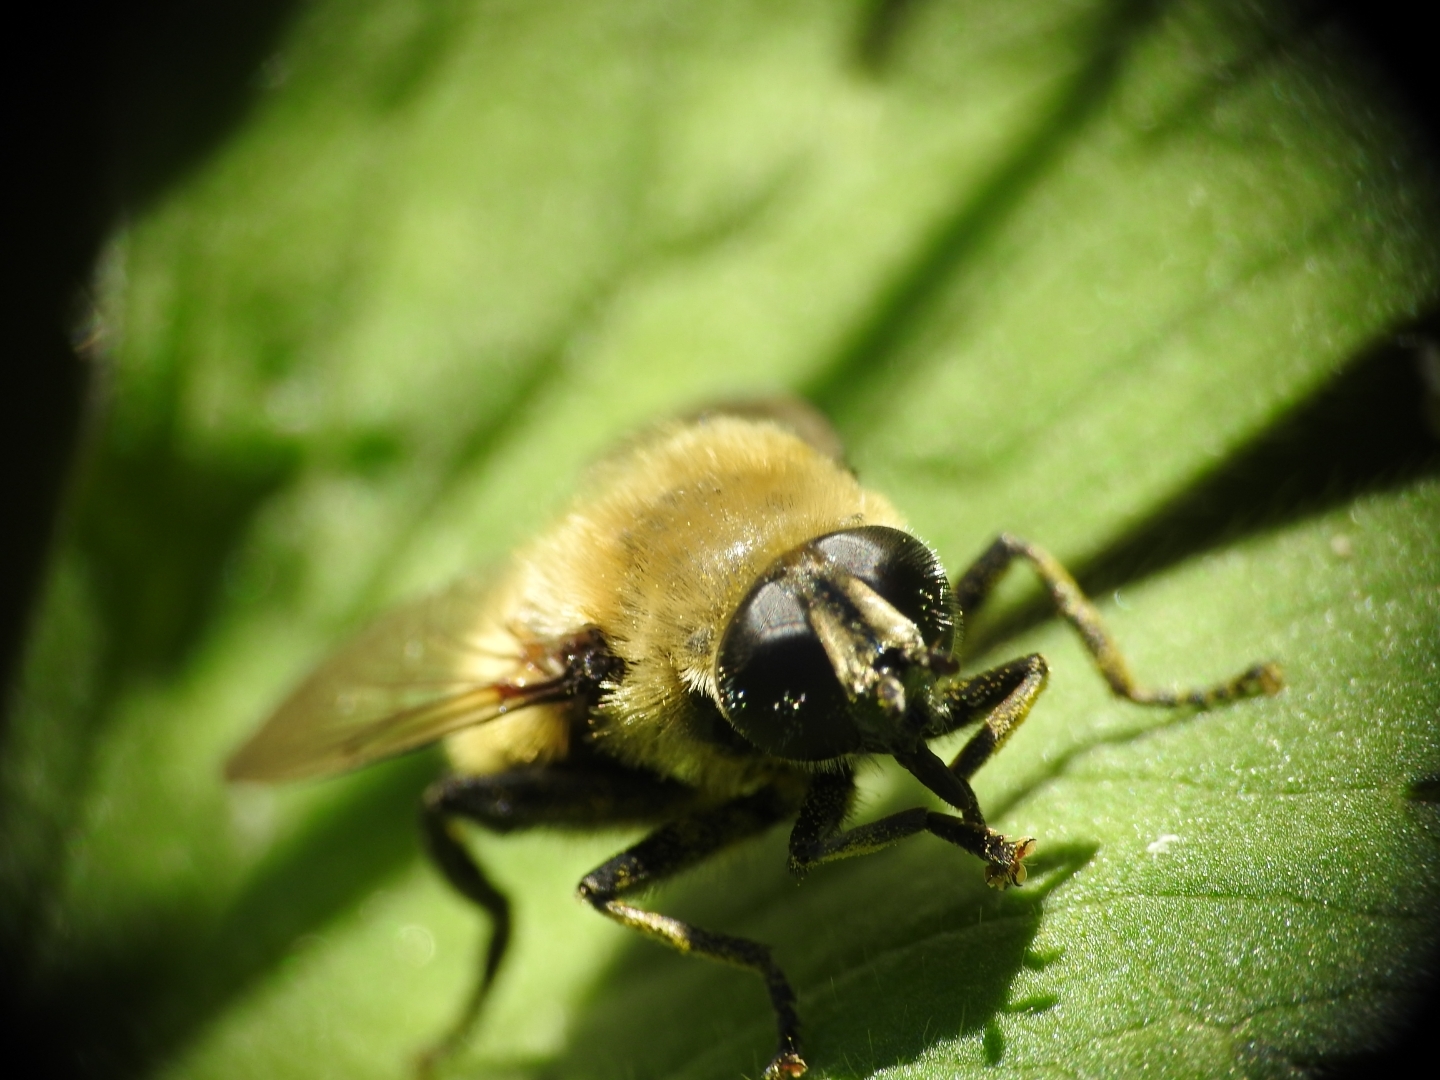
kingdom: Animalia
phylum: Arthropoda
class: Insecta
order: Diptera
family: Syrphidae
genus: Merodon
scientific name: Merodon equestris
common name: Greater bulb-fly
